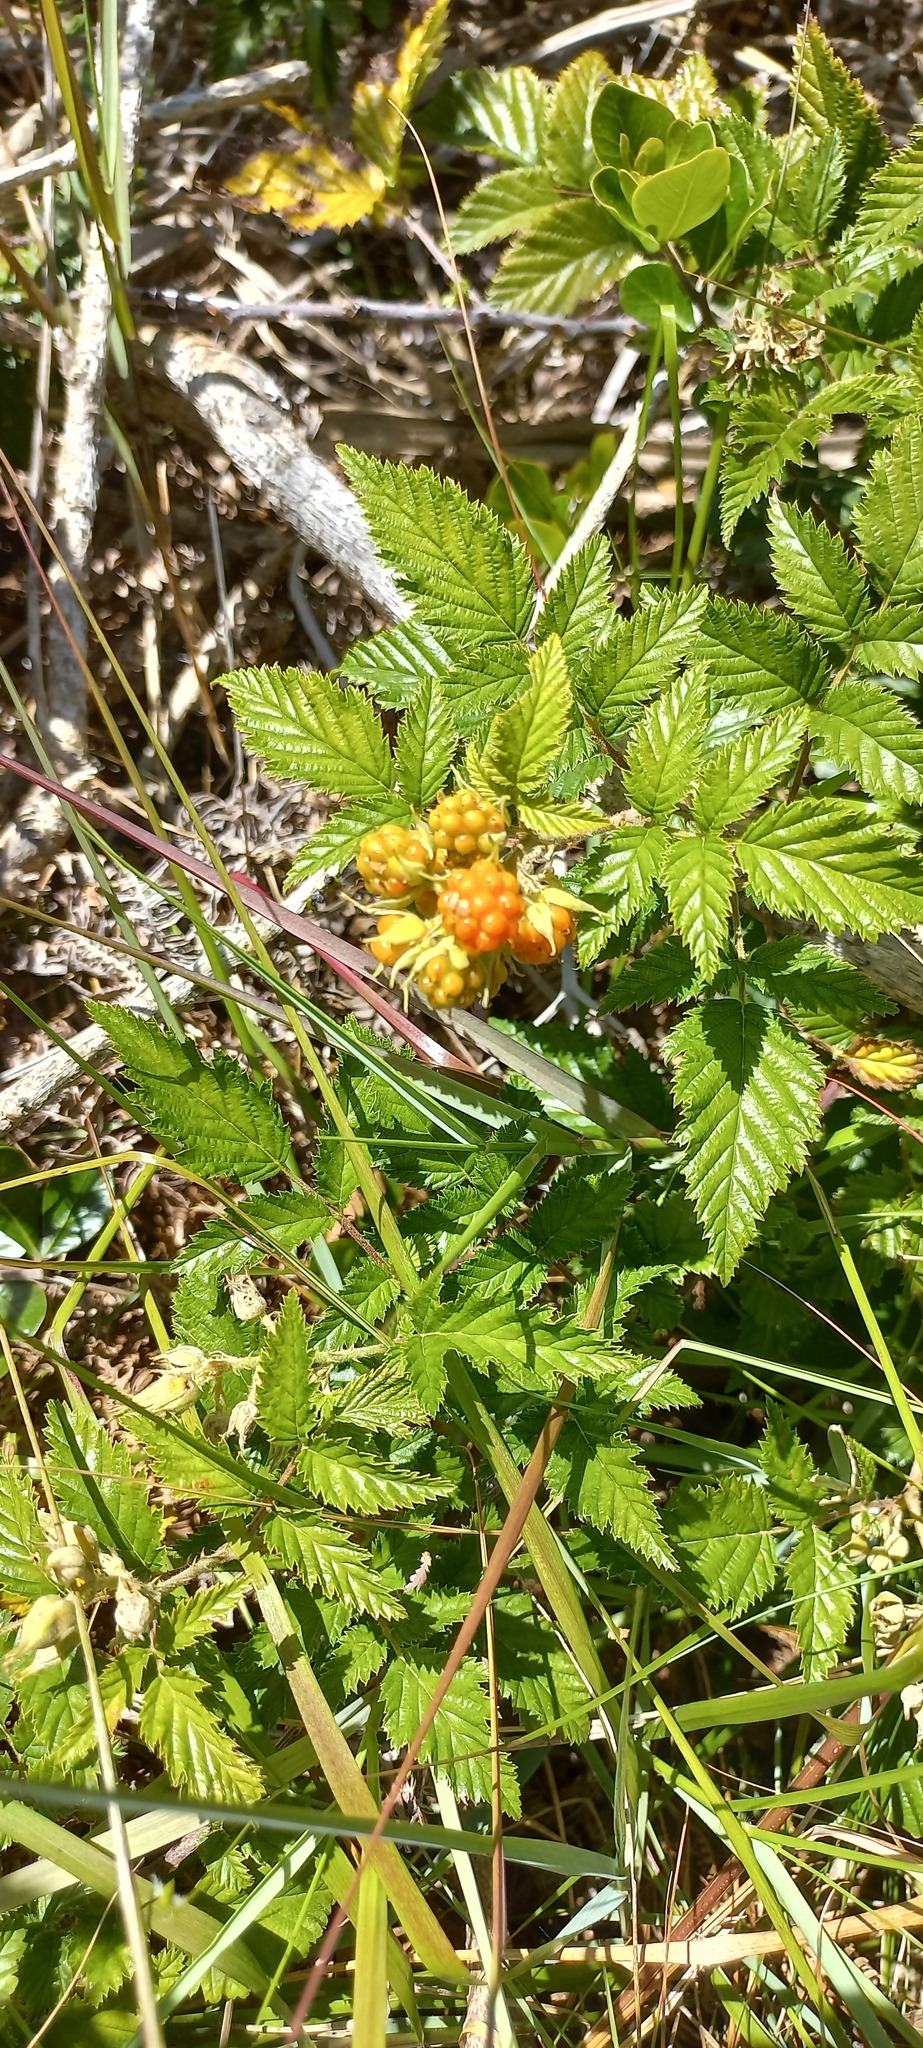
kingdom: Plantae
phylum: Tracheophyta
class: Magnoliopsida
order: Rosales
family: Rosaceae
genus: Rubus
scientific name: Rubus pinnatus
